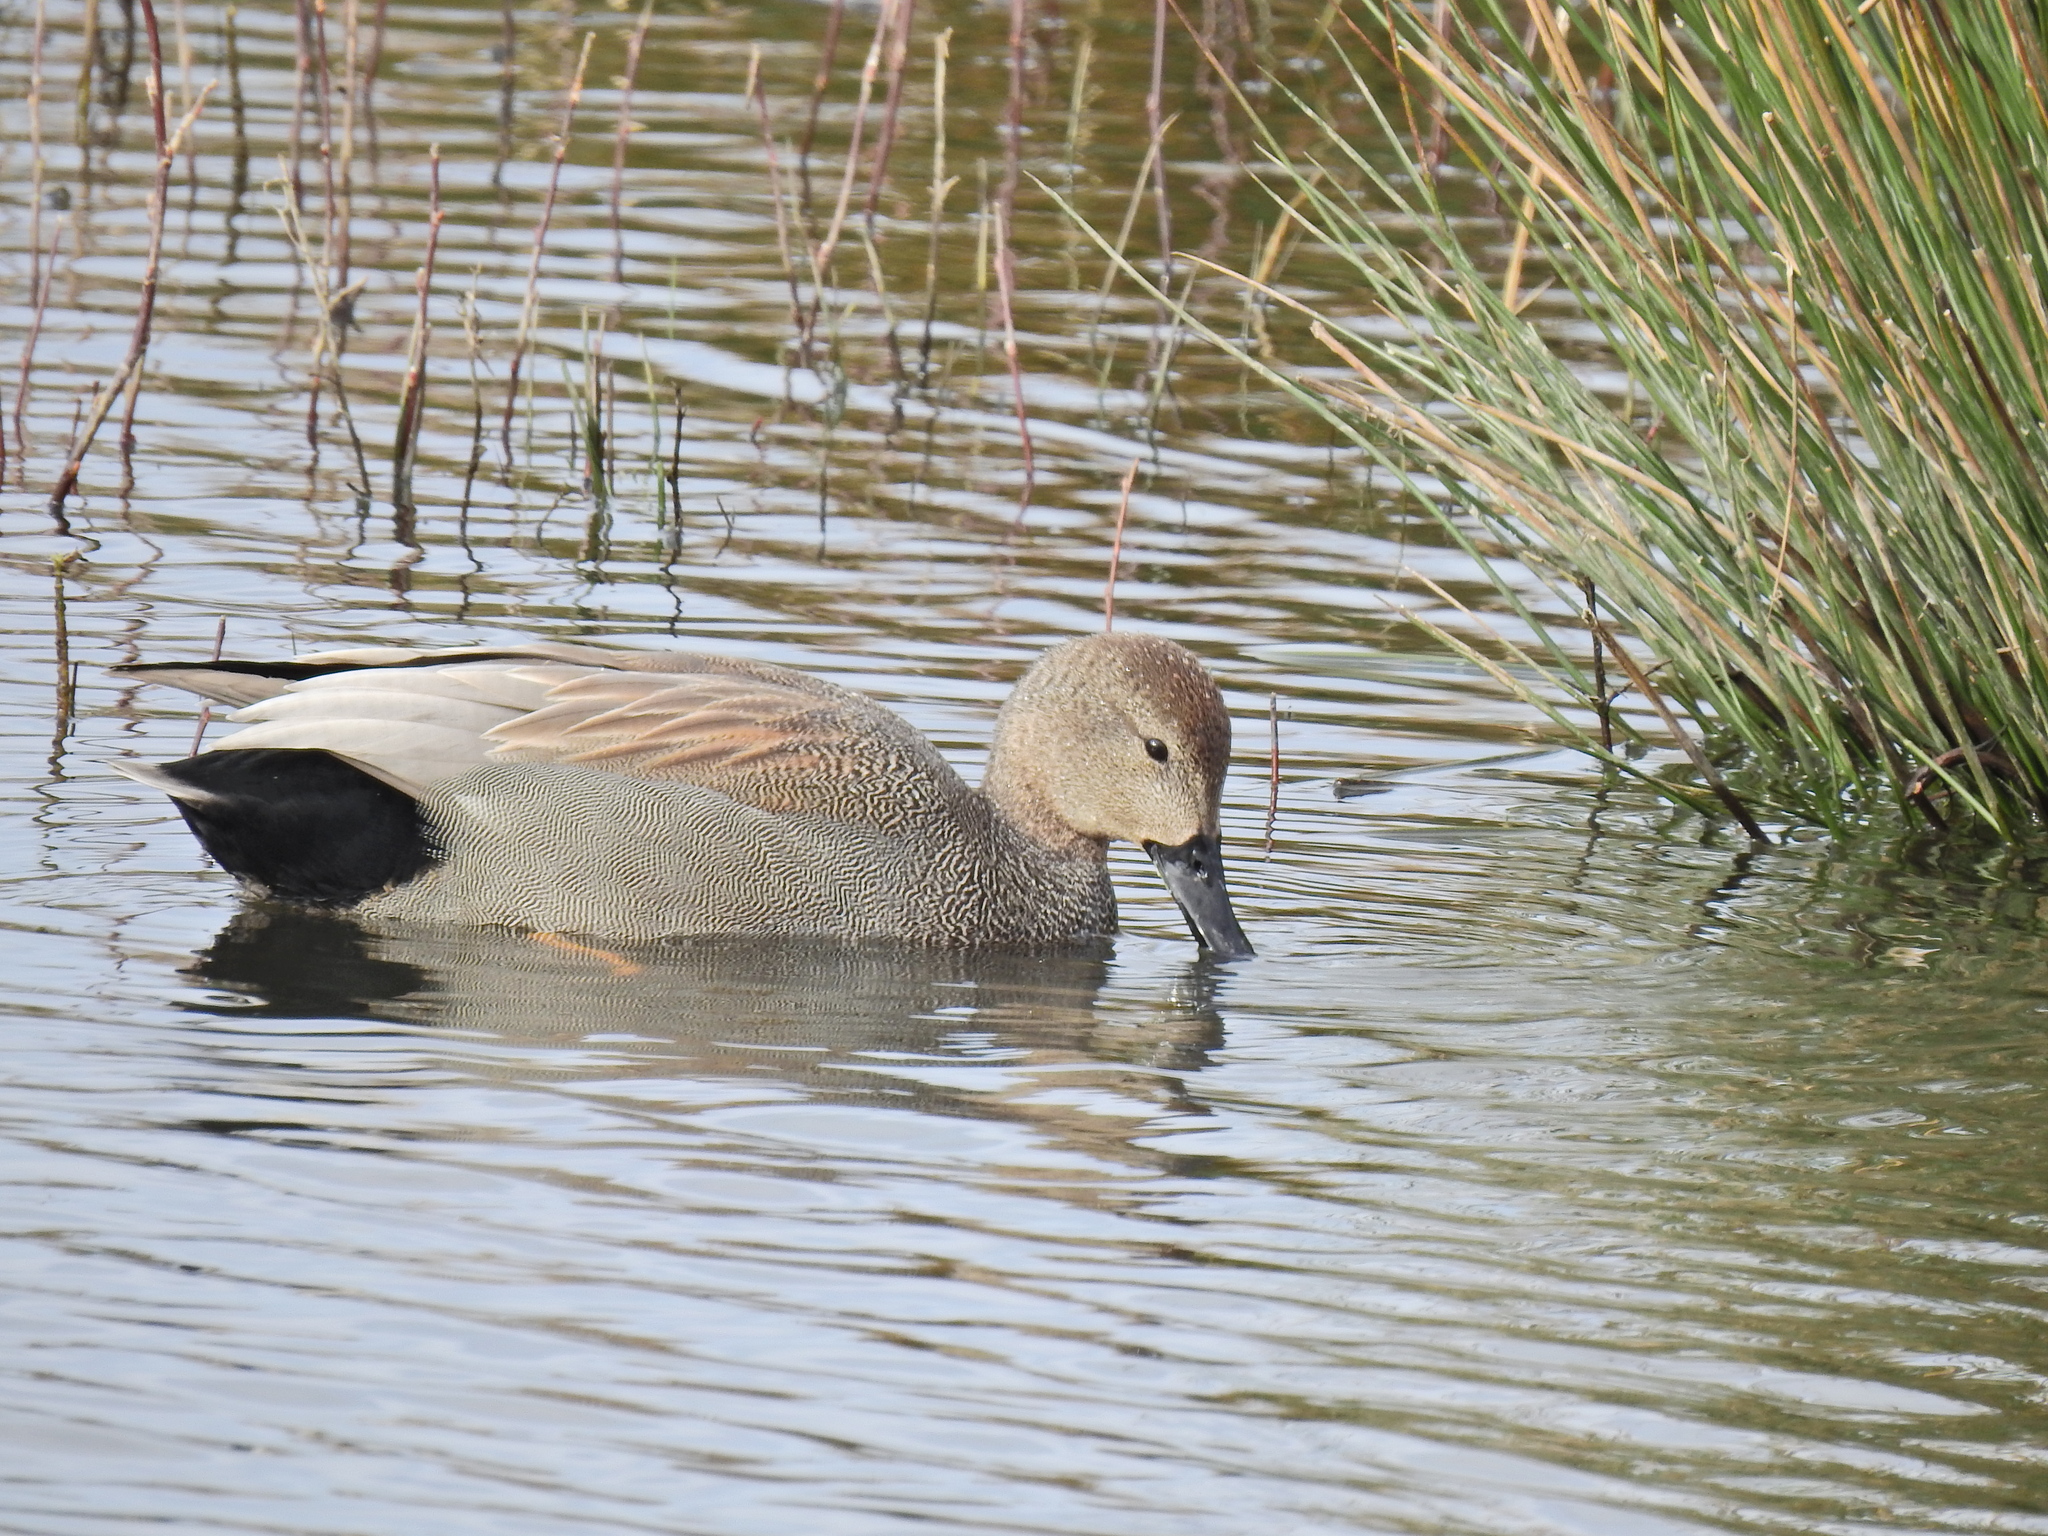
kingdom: Animalia
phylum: Chordata
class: Aves
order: Anseriformes
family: Anatidae
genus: Mareca
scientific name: Mareca strepera
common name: Gadwall
